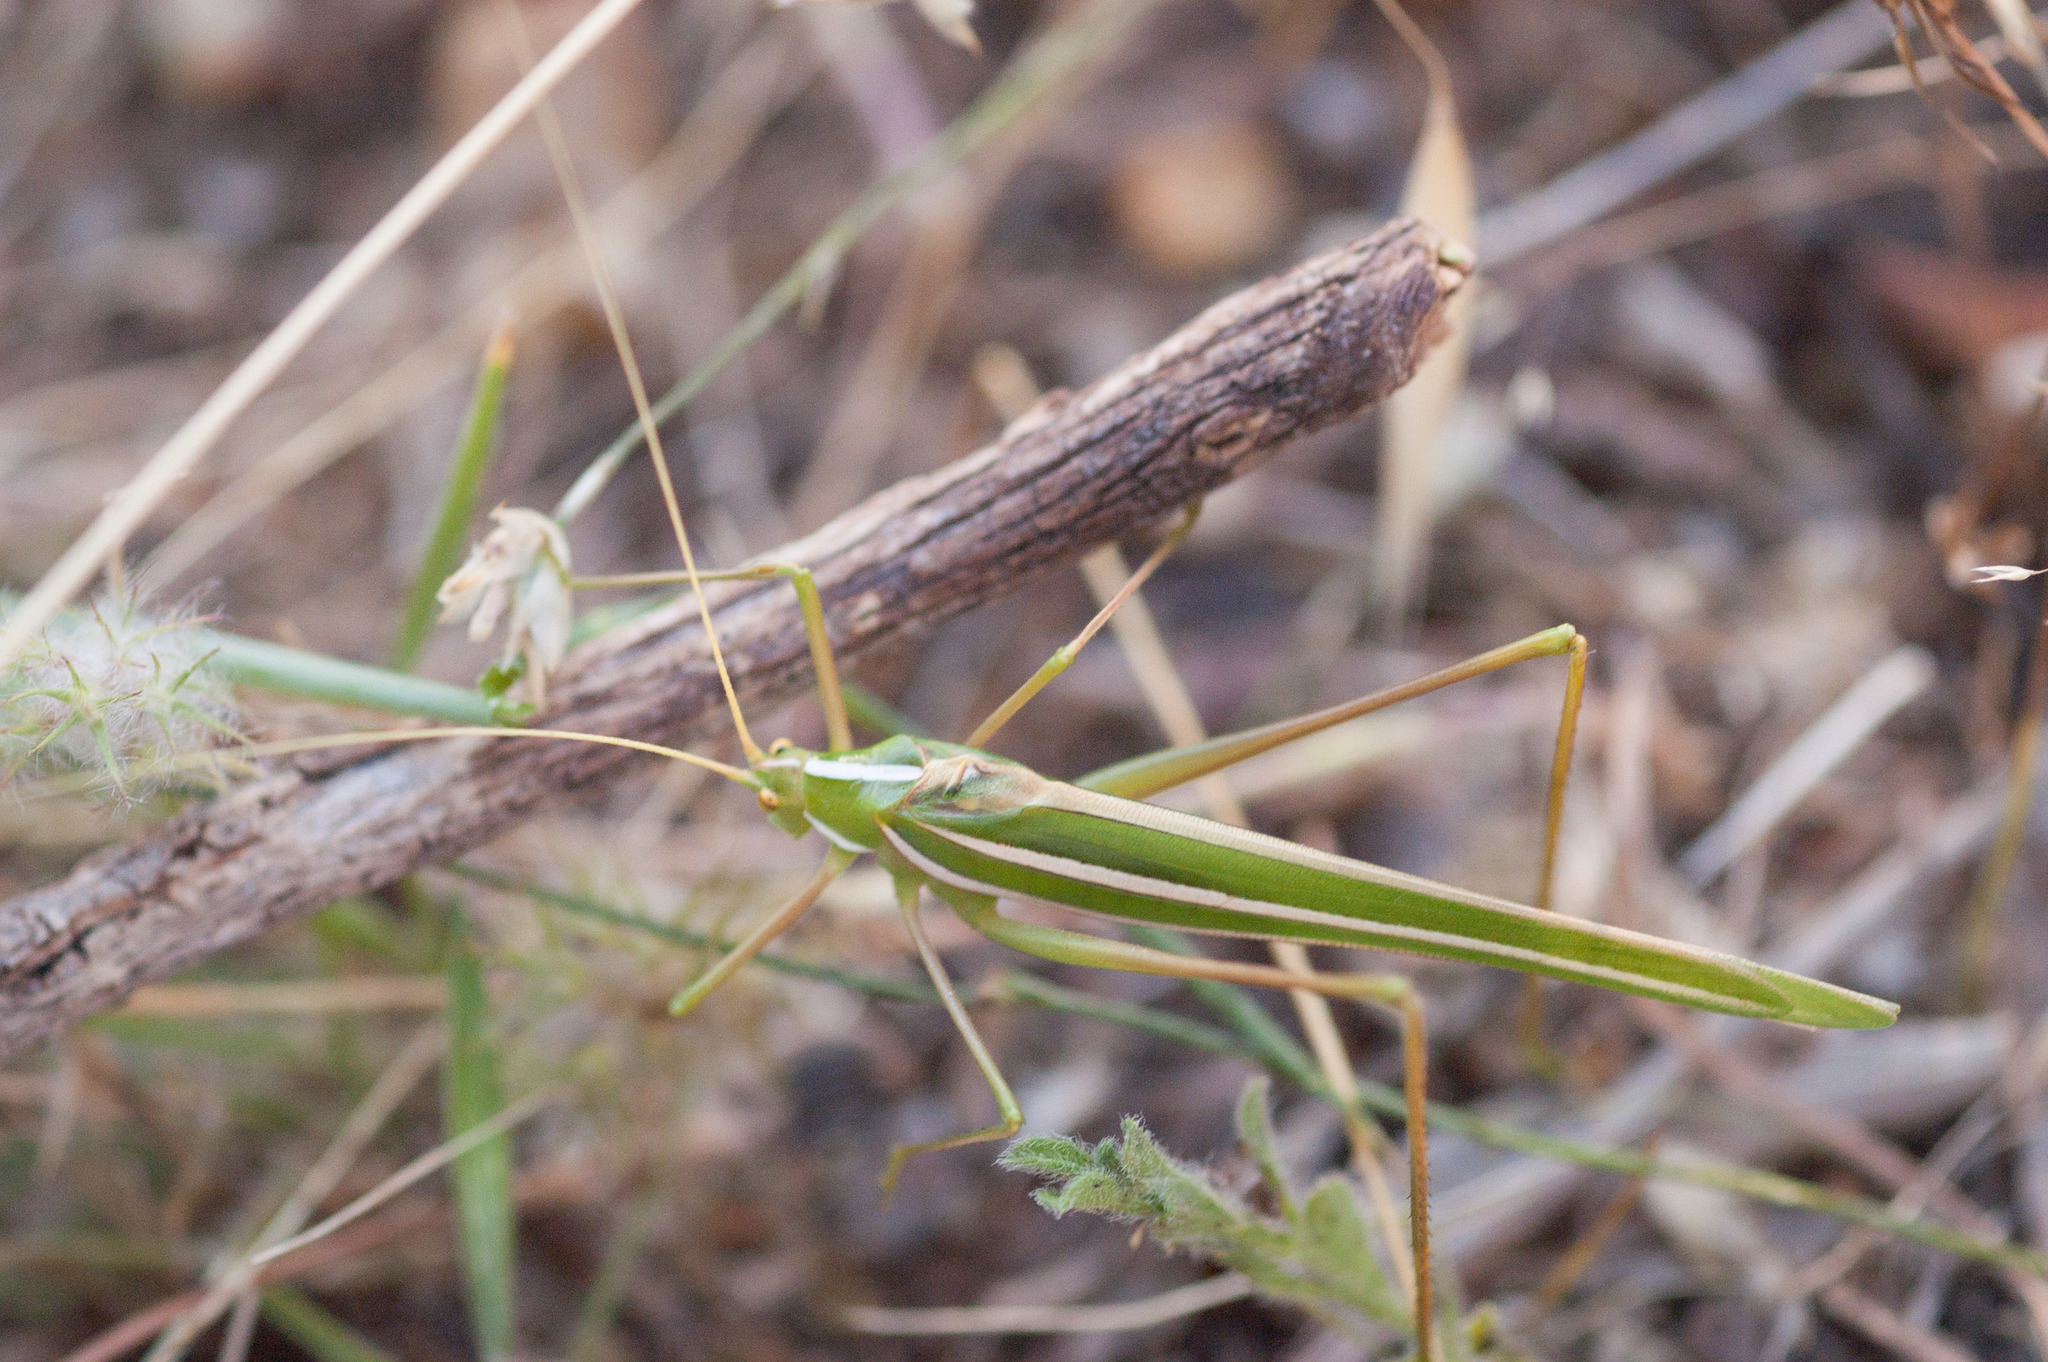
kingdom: Animalia
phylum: Arthropoda
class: Insecta
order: Orthoptera
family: Tettigoniidae
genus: Tinzeda
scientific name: Tinzeda sororoides
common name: Southern tinzeda
